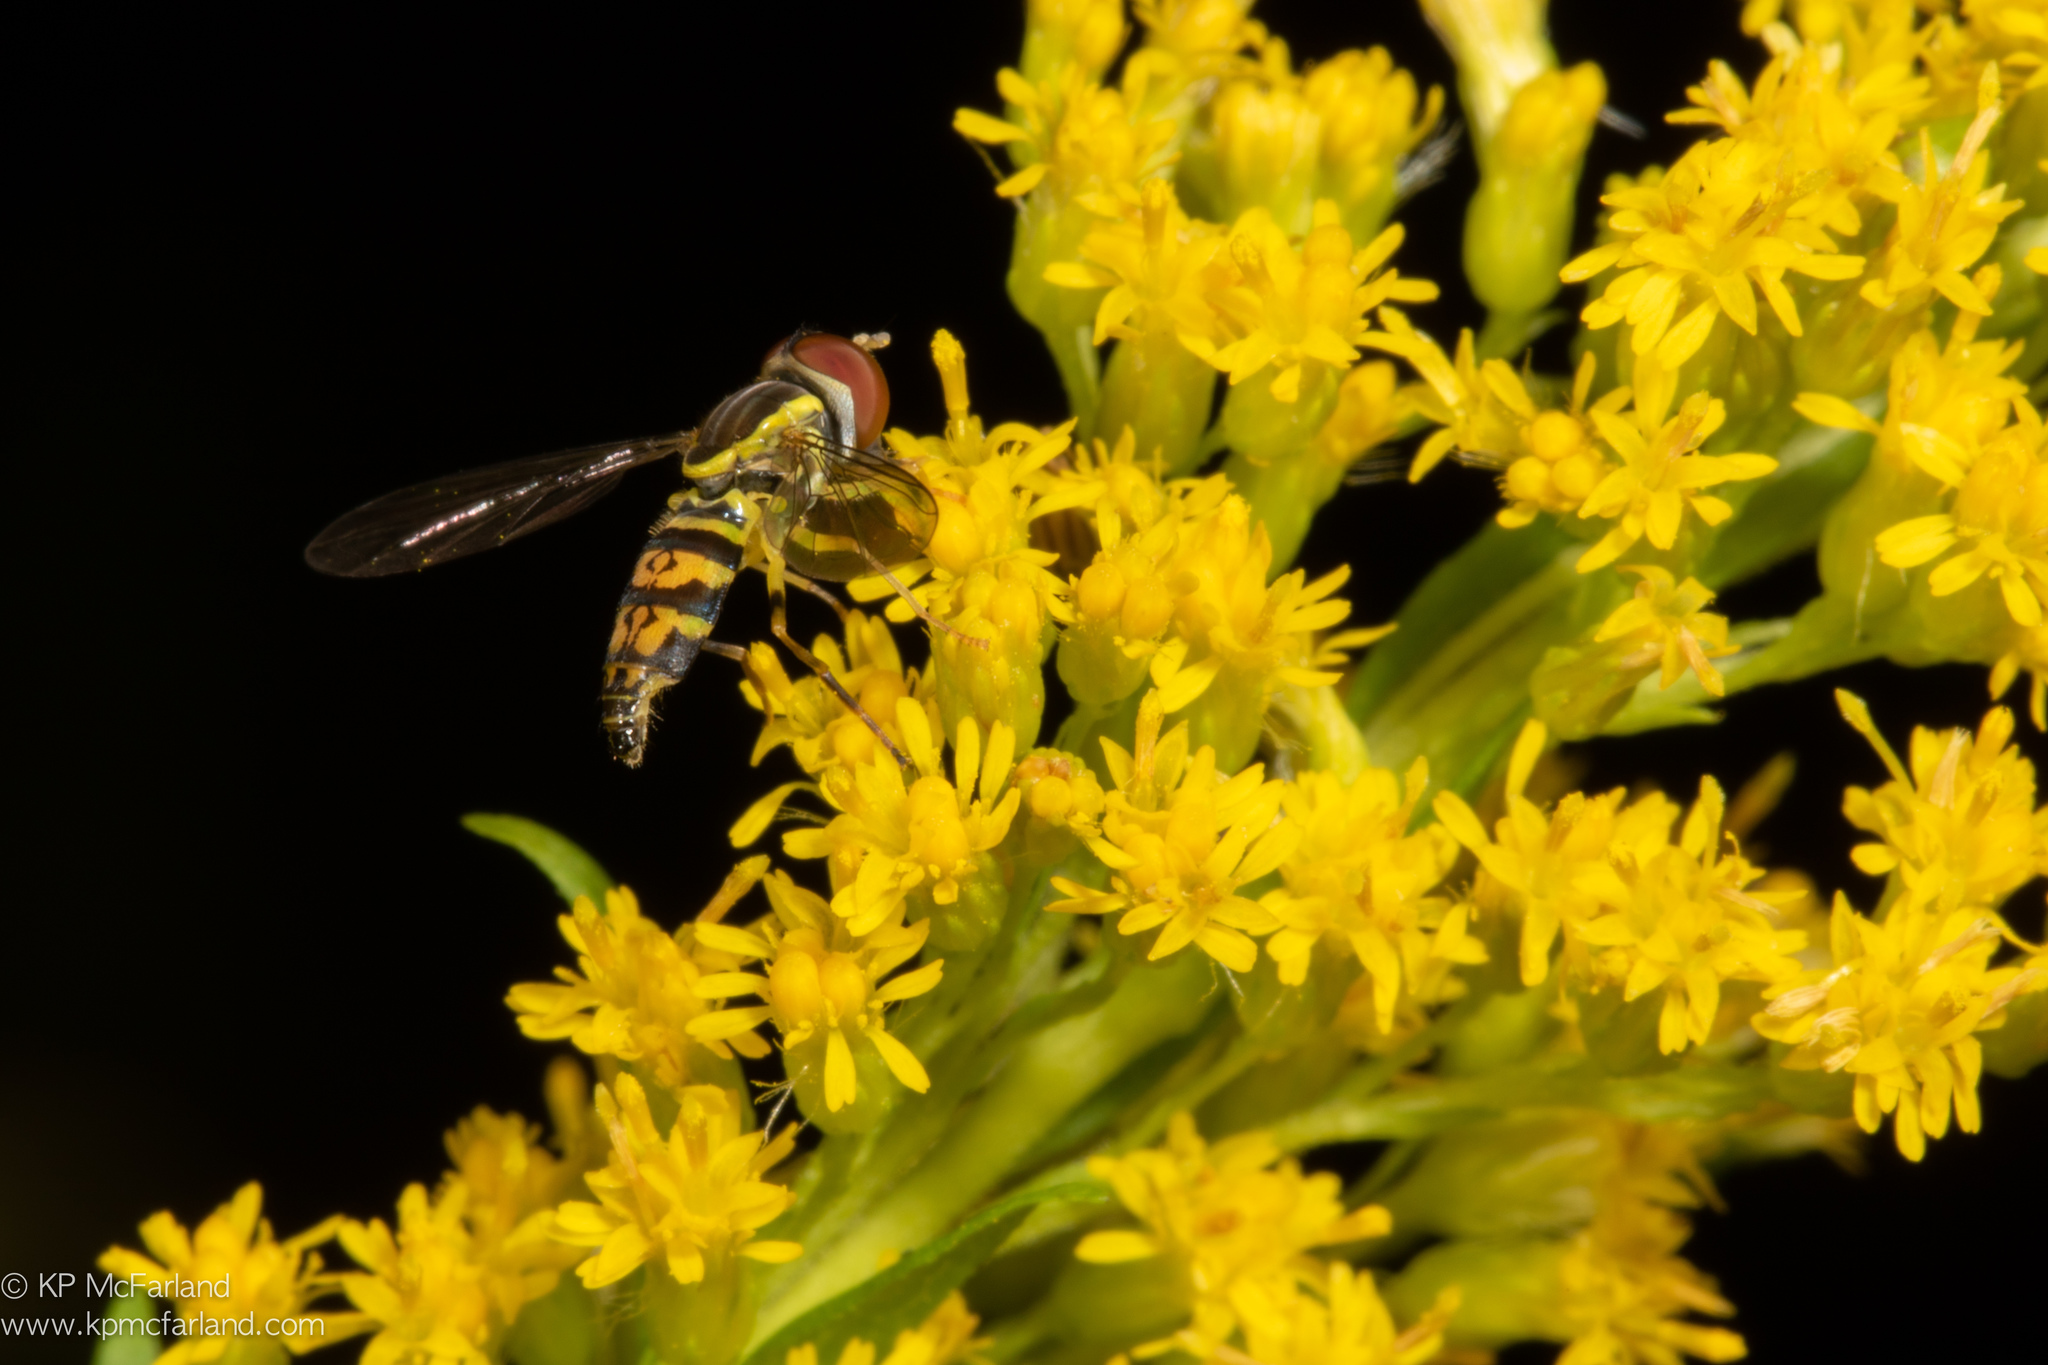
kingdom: Animalia
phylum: Arthropoda
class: Insecta
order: Diptera
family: Syrphidae
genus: Toxomerus
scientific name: Toxomerus geminatus
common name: Eastern calligrapher
